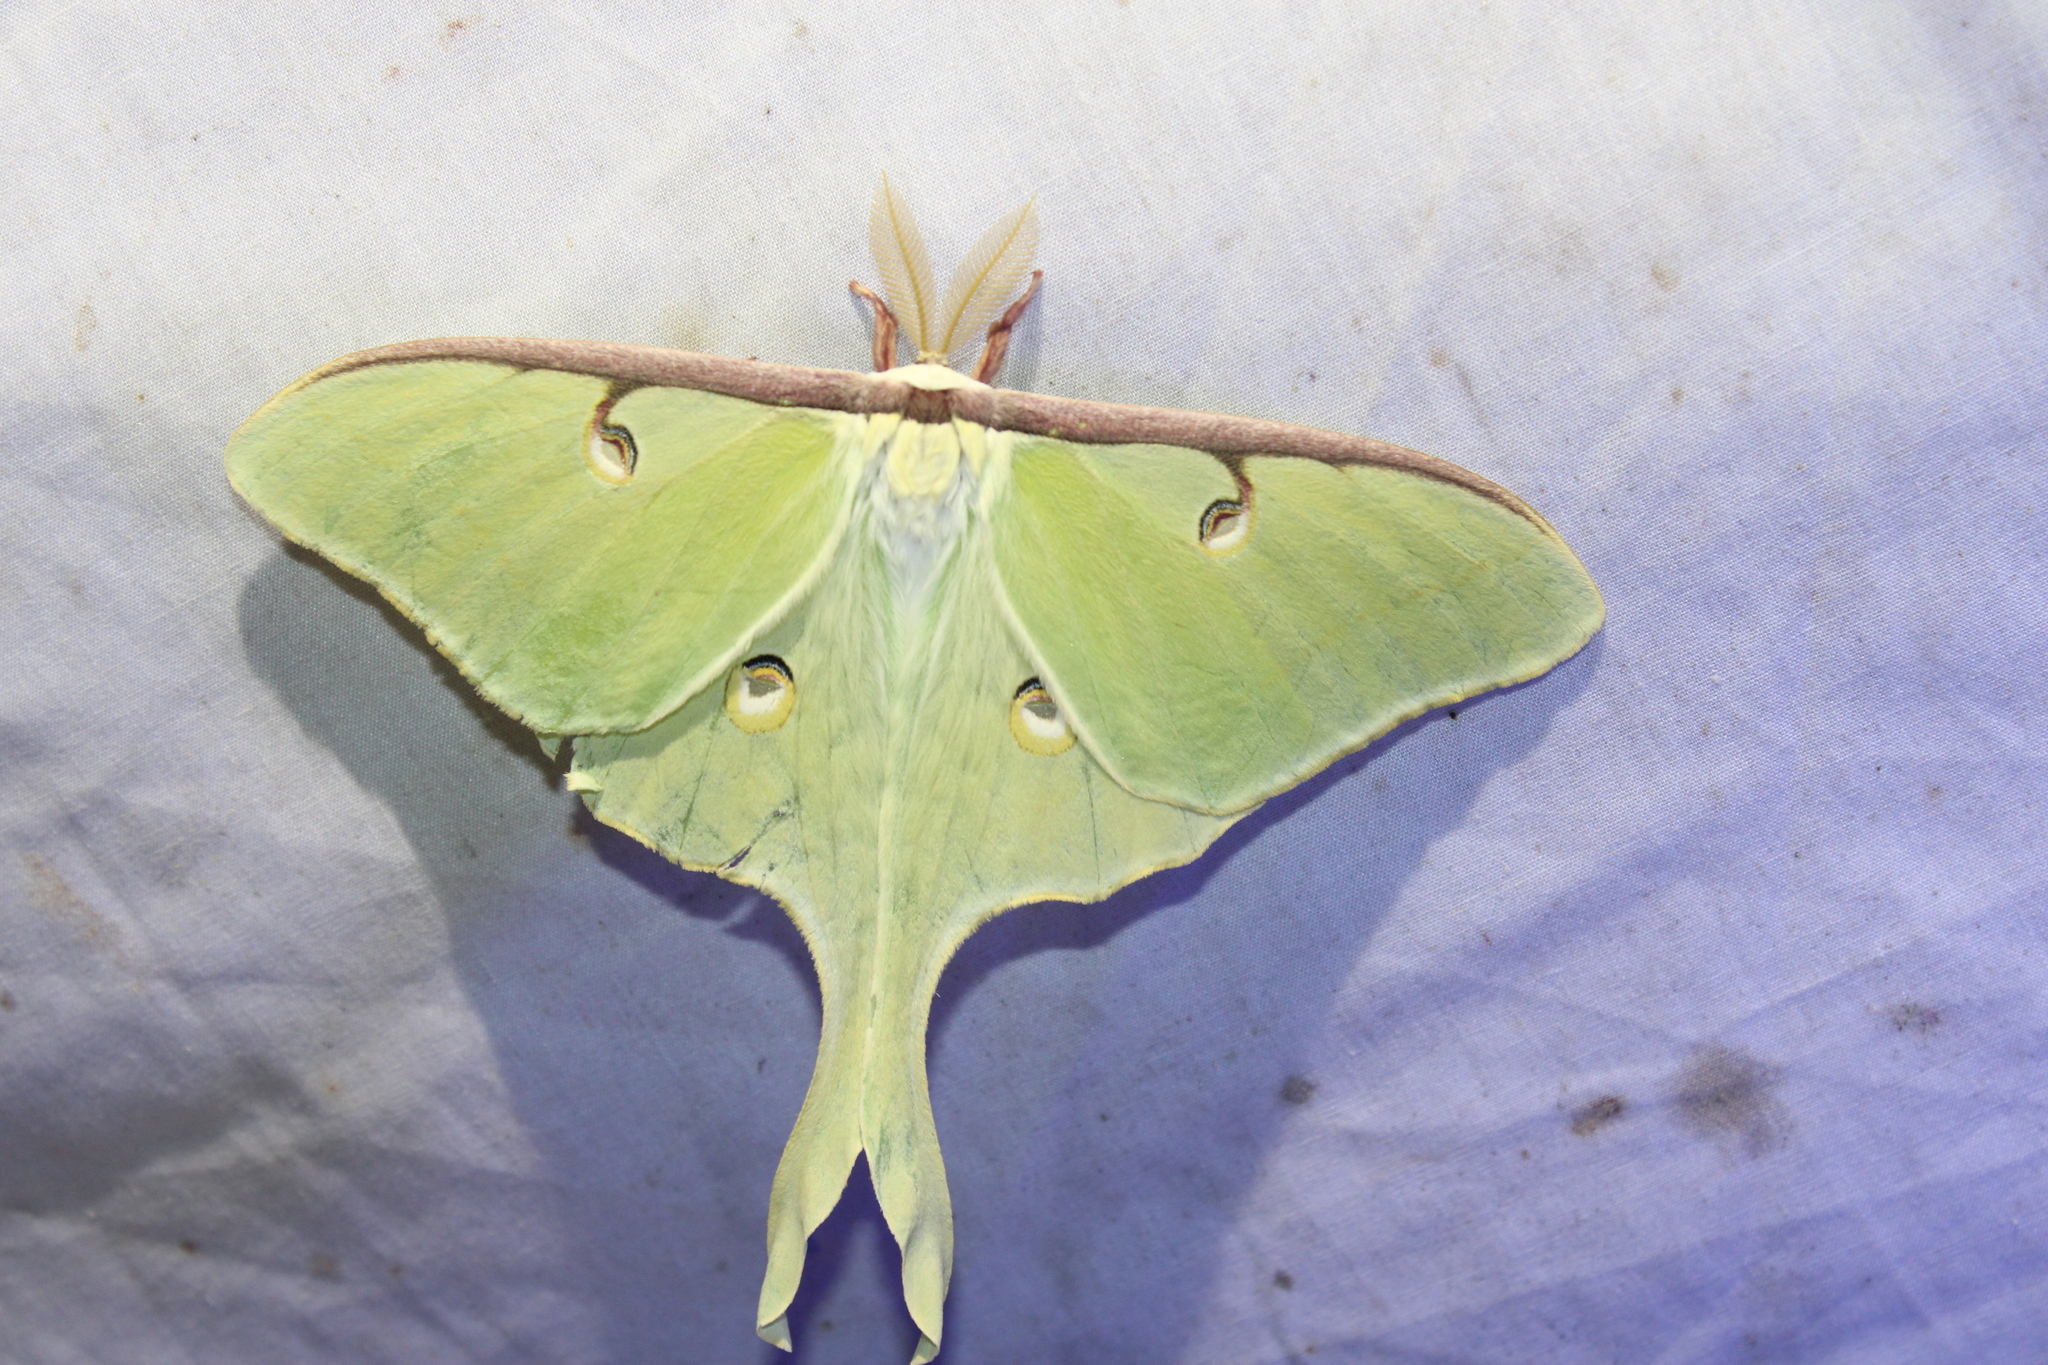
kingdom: Animalia
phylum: Arthropoda
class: Insecta
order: Lepidoptera
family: Saturniidae
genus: Actias
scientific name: Actias luna
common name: Luna moth
